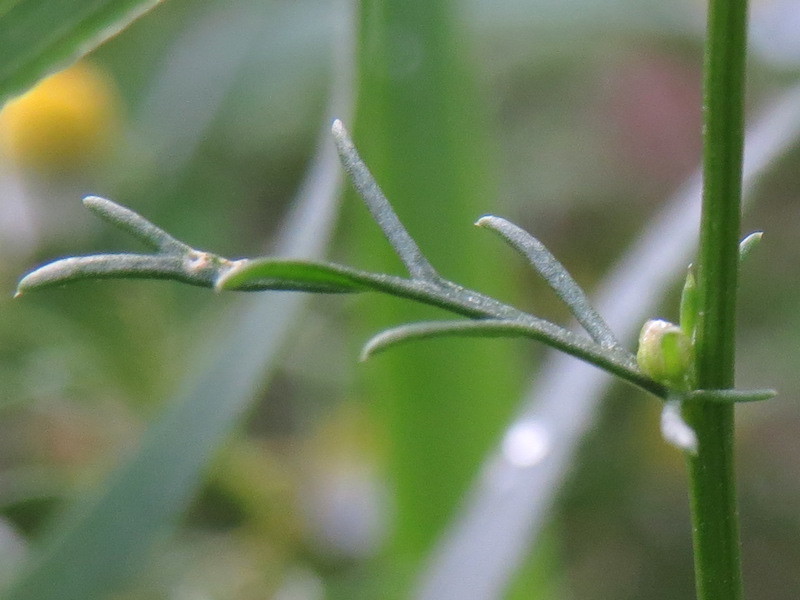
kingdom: Plantae
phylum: Tracheophyta
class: Magnoliopsida
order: Asterales
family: Asteraceae
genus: Matricaria
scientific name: Matricaria chamomilla
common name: Scented mayweed
